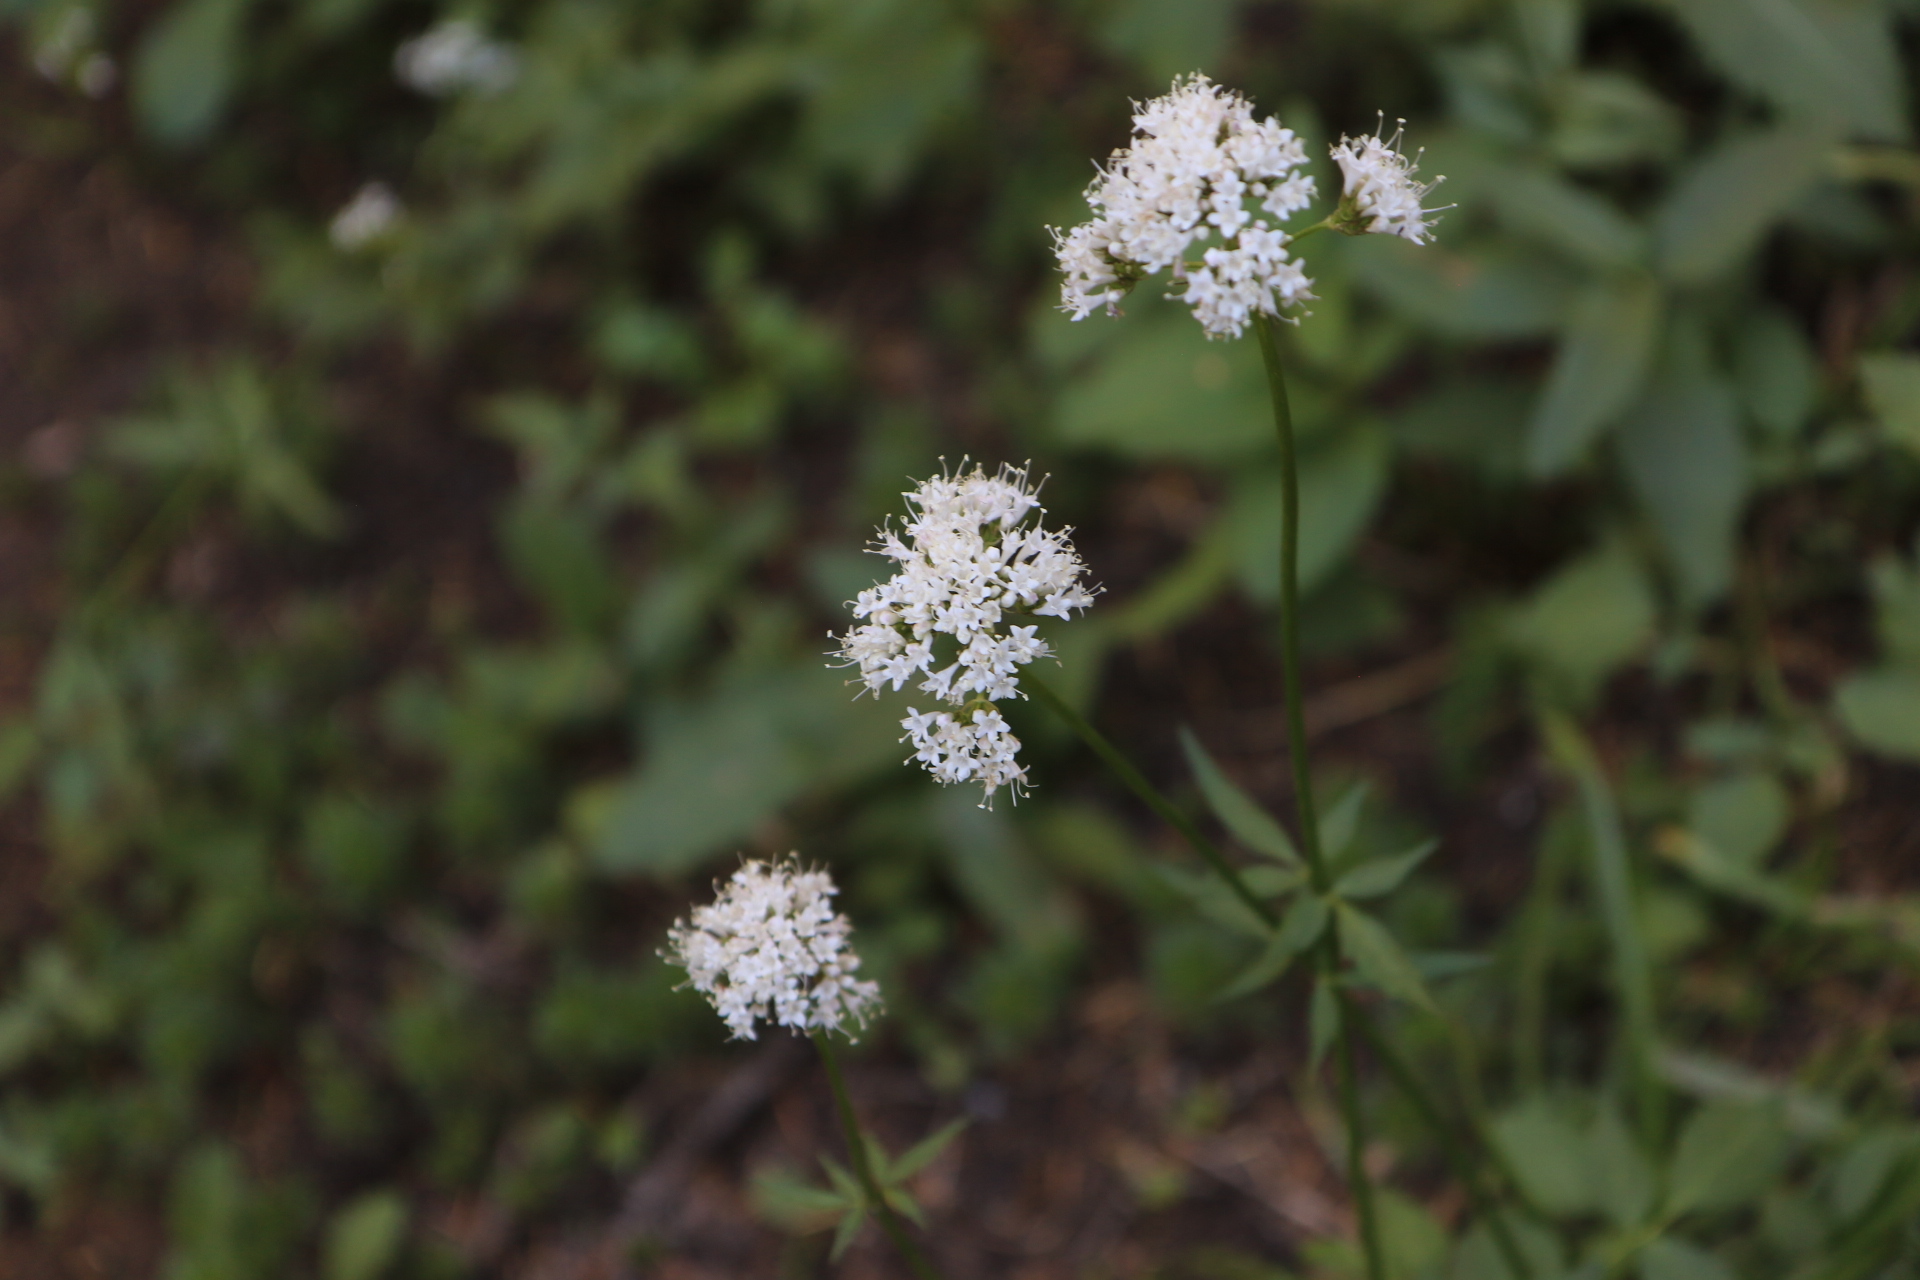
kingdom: Plantae
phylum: Tracheophyta
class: Magnoliopsida
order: Dipsacales
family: Caprifoliaceae
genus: Valeriana
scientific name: Valeriana sitchensis
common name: Pacific valerian
